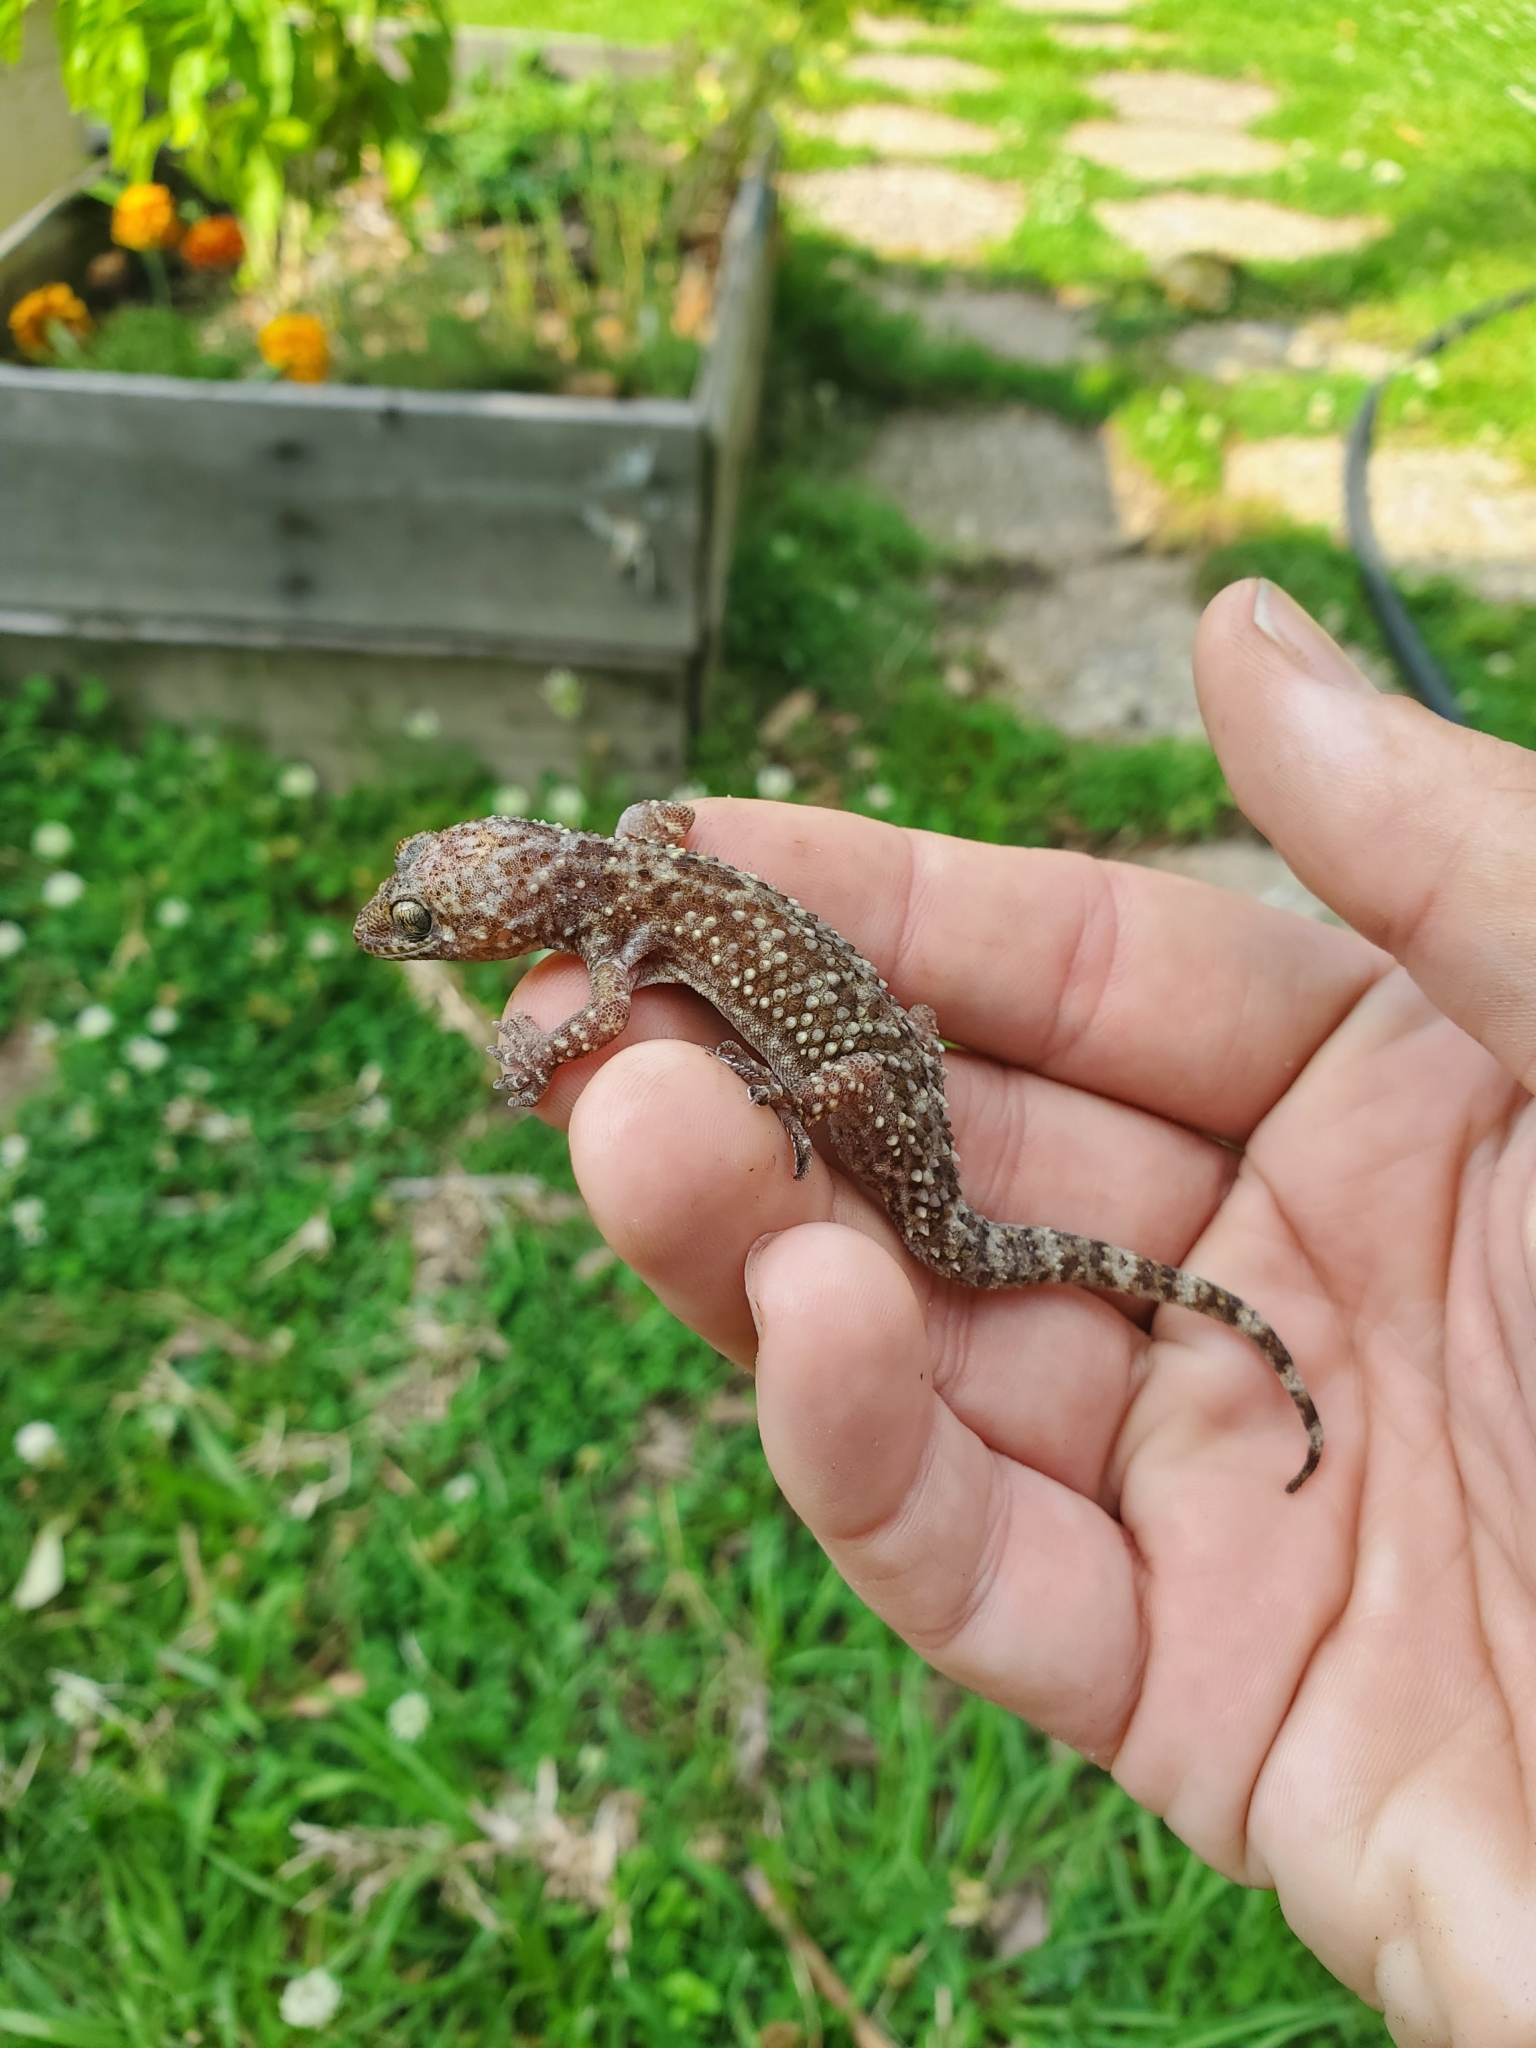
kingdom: Animalia
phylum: Chordata
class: Squamata
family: Gekkonidae
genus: Hemidactylus
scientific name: Hemidactylus turcicus
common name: Turkish gecko
